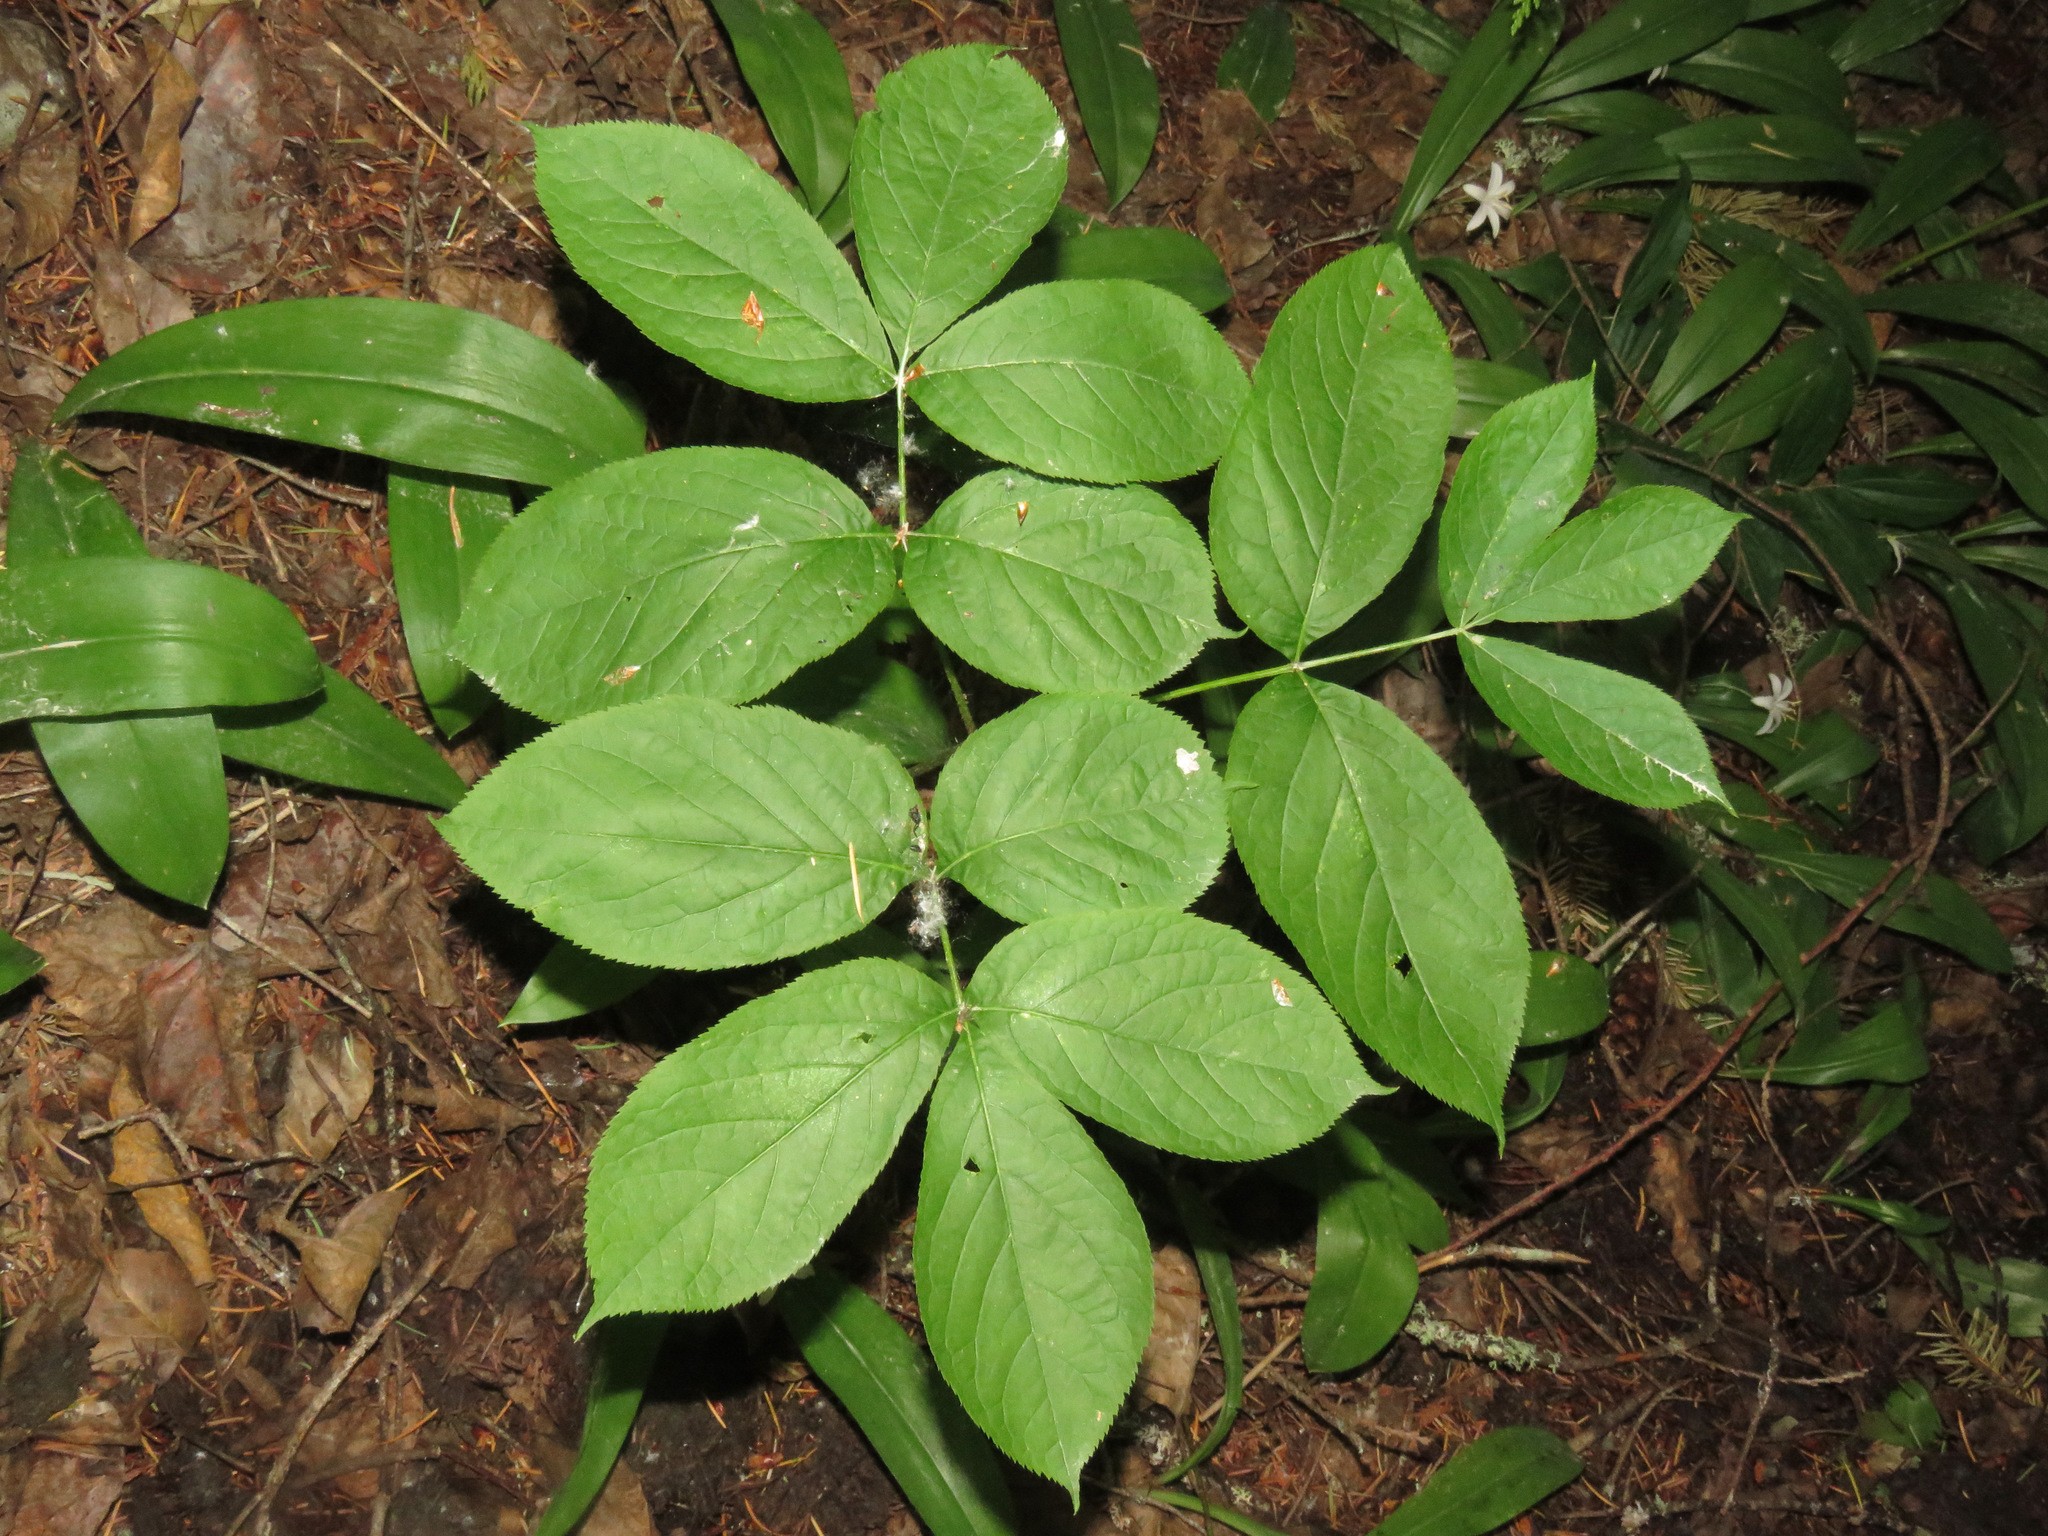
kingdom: Plantae
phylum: Tracheophyta
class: Magnoliopsida
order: Apiales
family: Araliaceae
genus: Aralia
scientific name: Aralia nudicaulis
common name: Wild sarsaparilla
